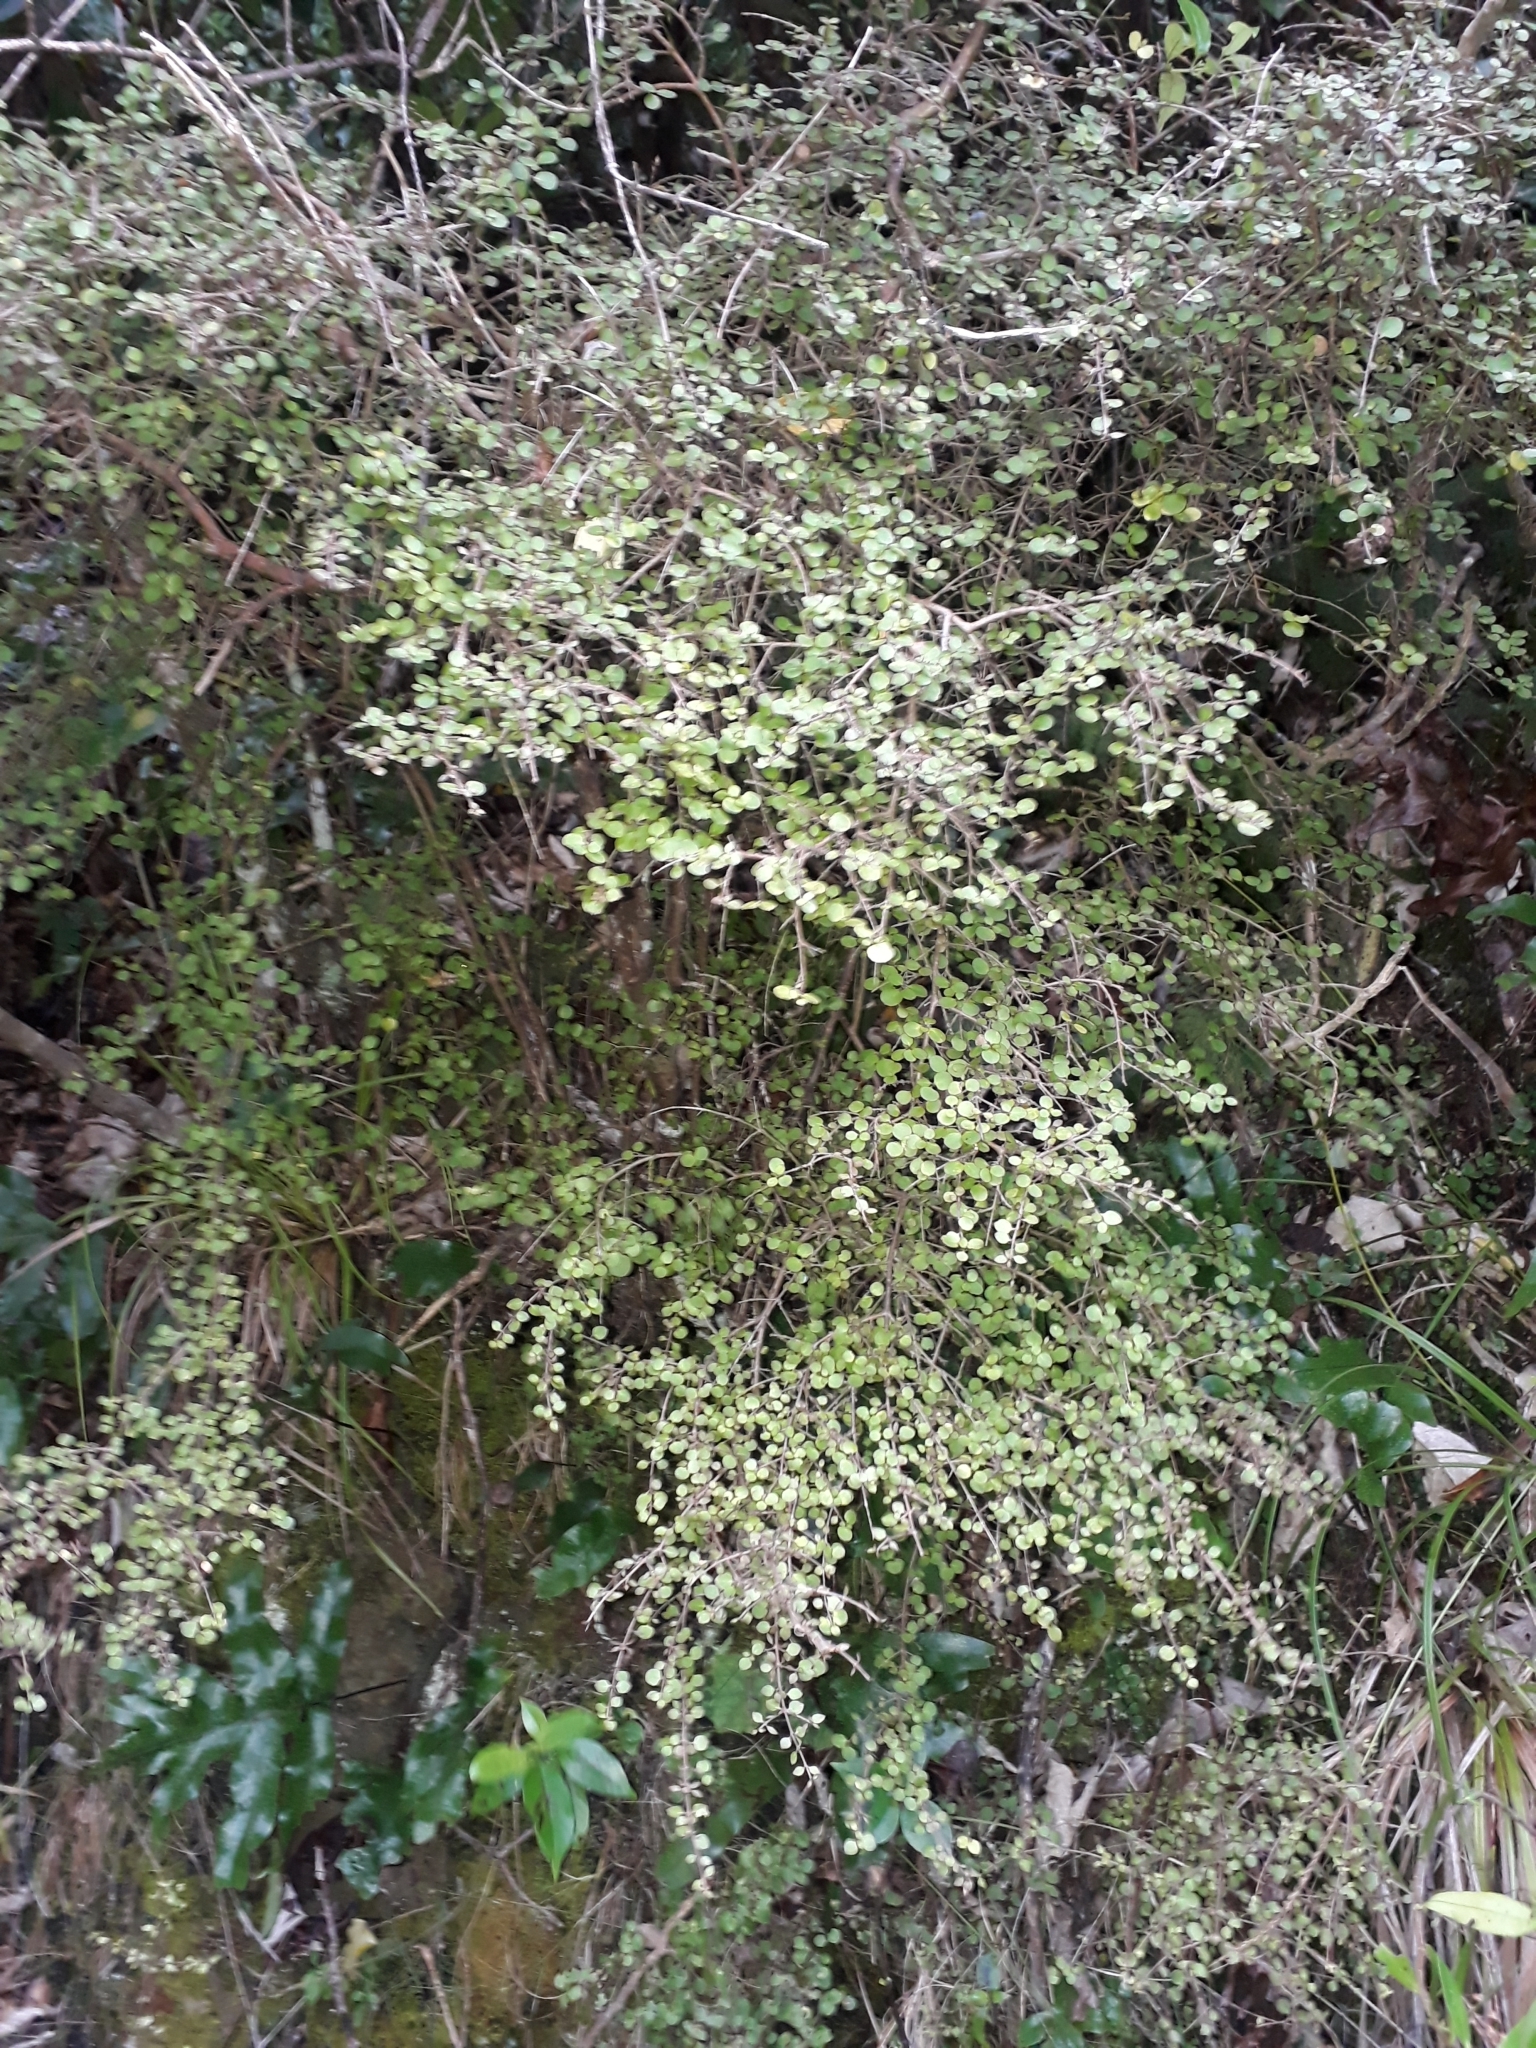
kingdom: Plantae
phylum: Tracheophyta
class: Magnoliopsida
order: Gentianales
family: Rubiaceae
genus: Coprosma
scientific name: Coprosma rhamnoides
